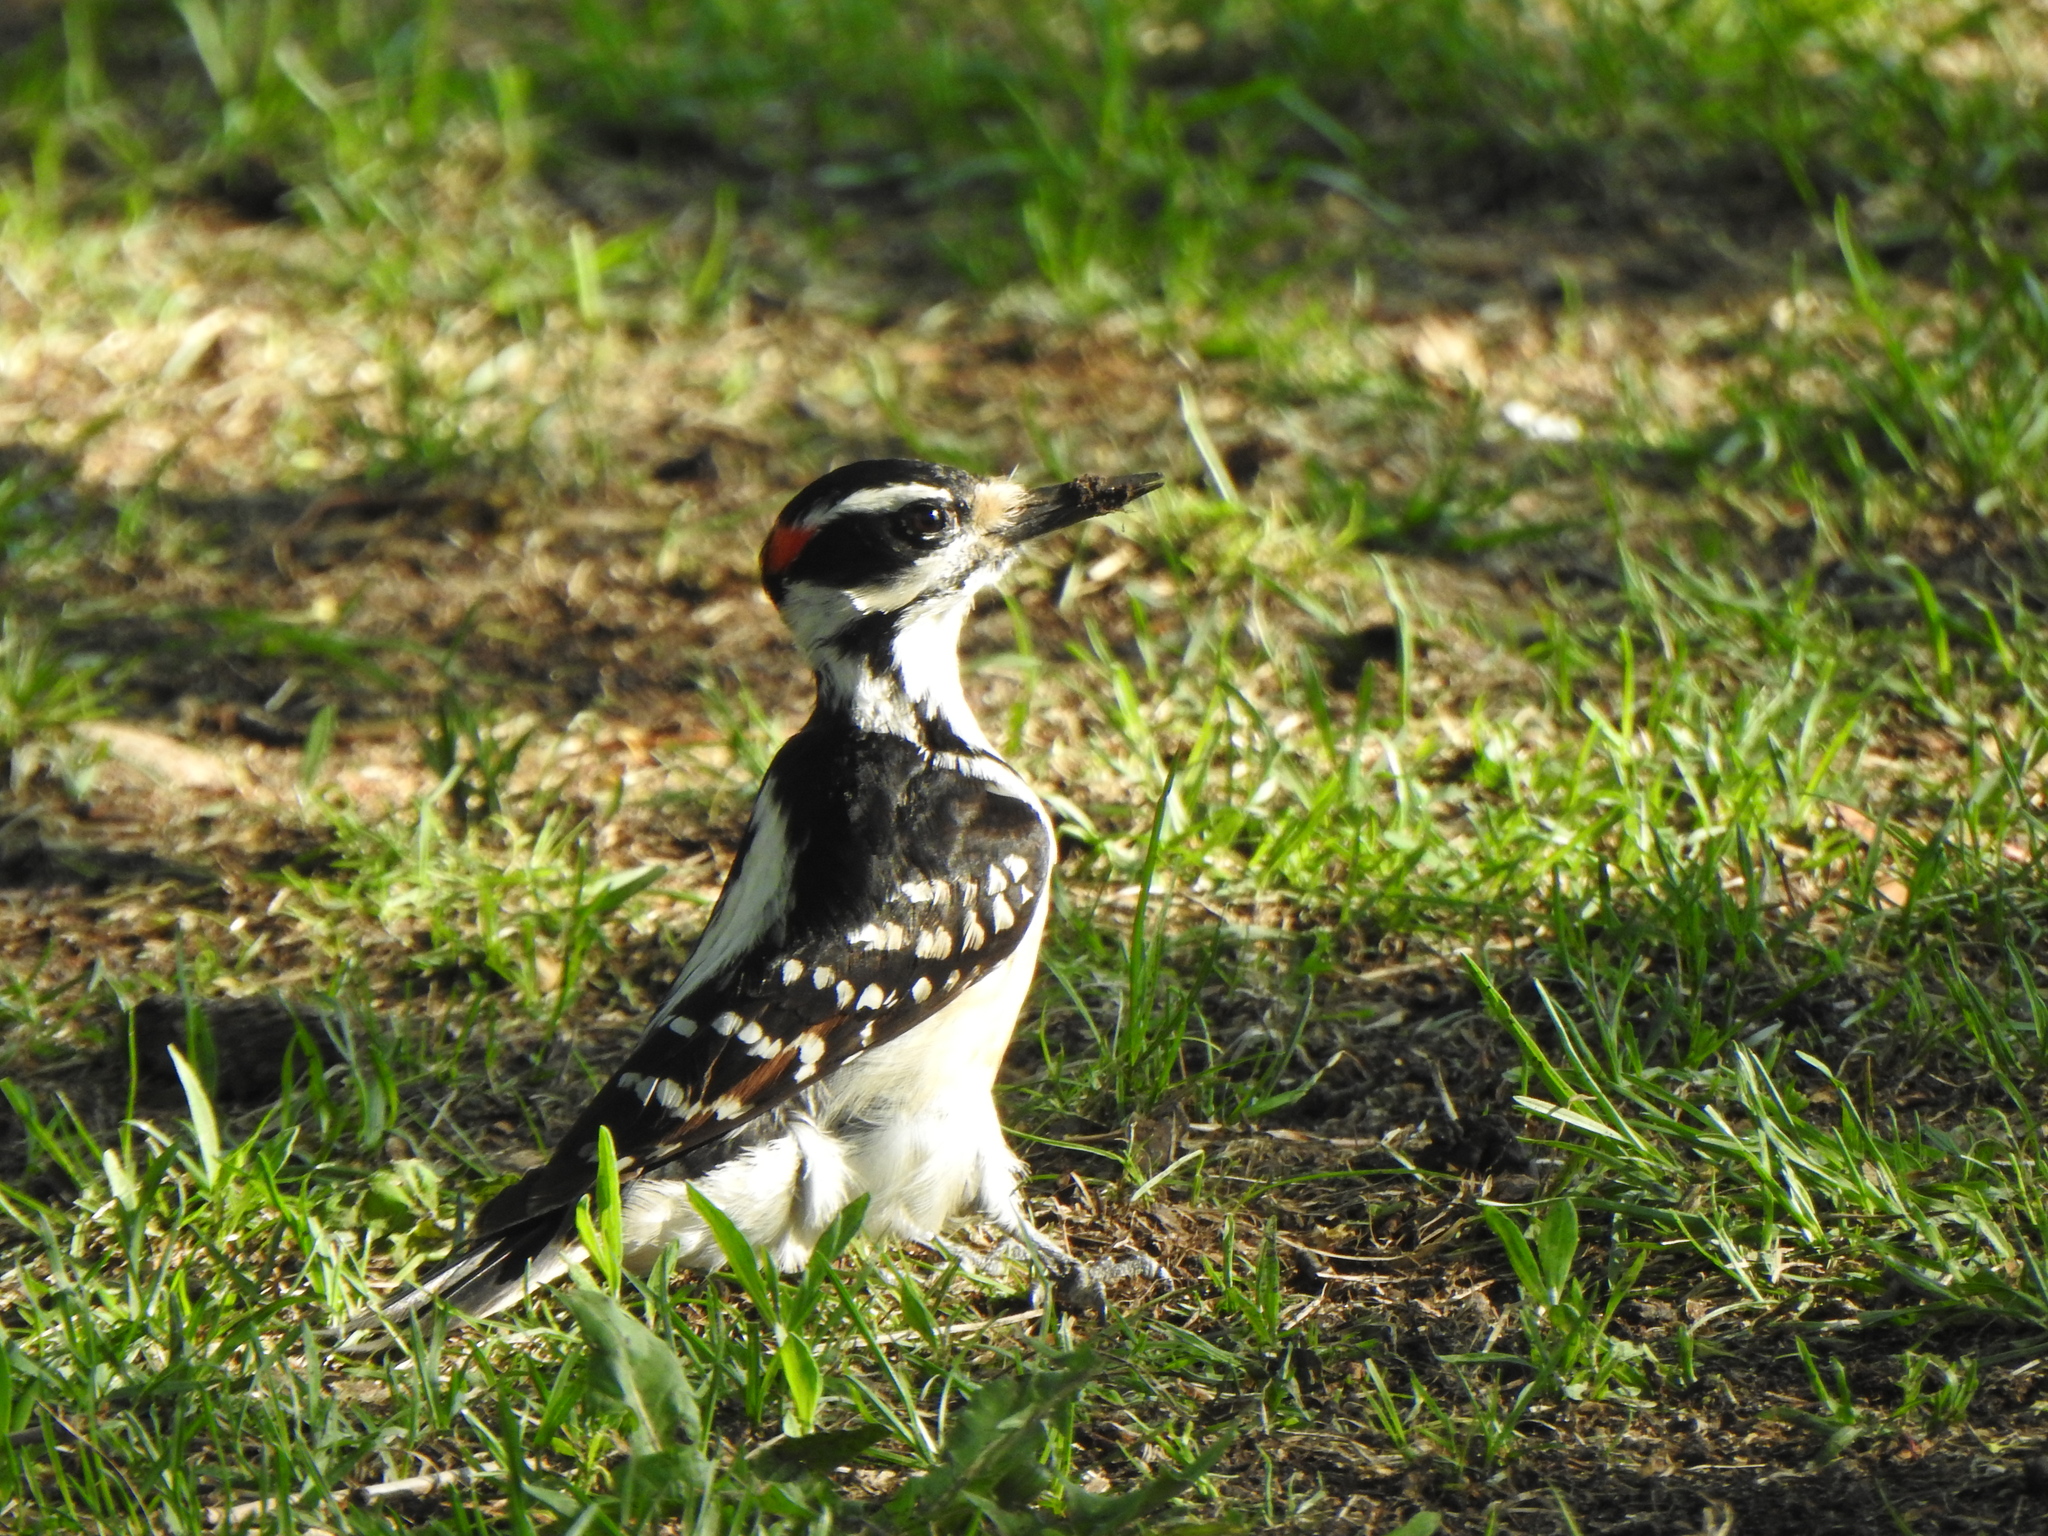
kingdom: Animalia
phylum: Chordata
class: Aves
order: Piciformes
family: Picidae
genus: Leuconotopicus
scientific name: Leuconotopicus villosus
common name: Hairy woodpecker
